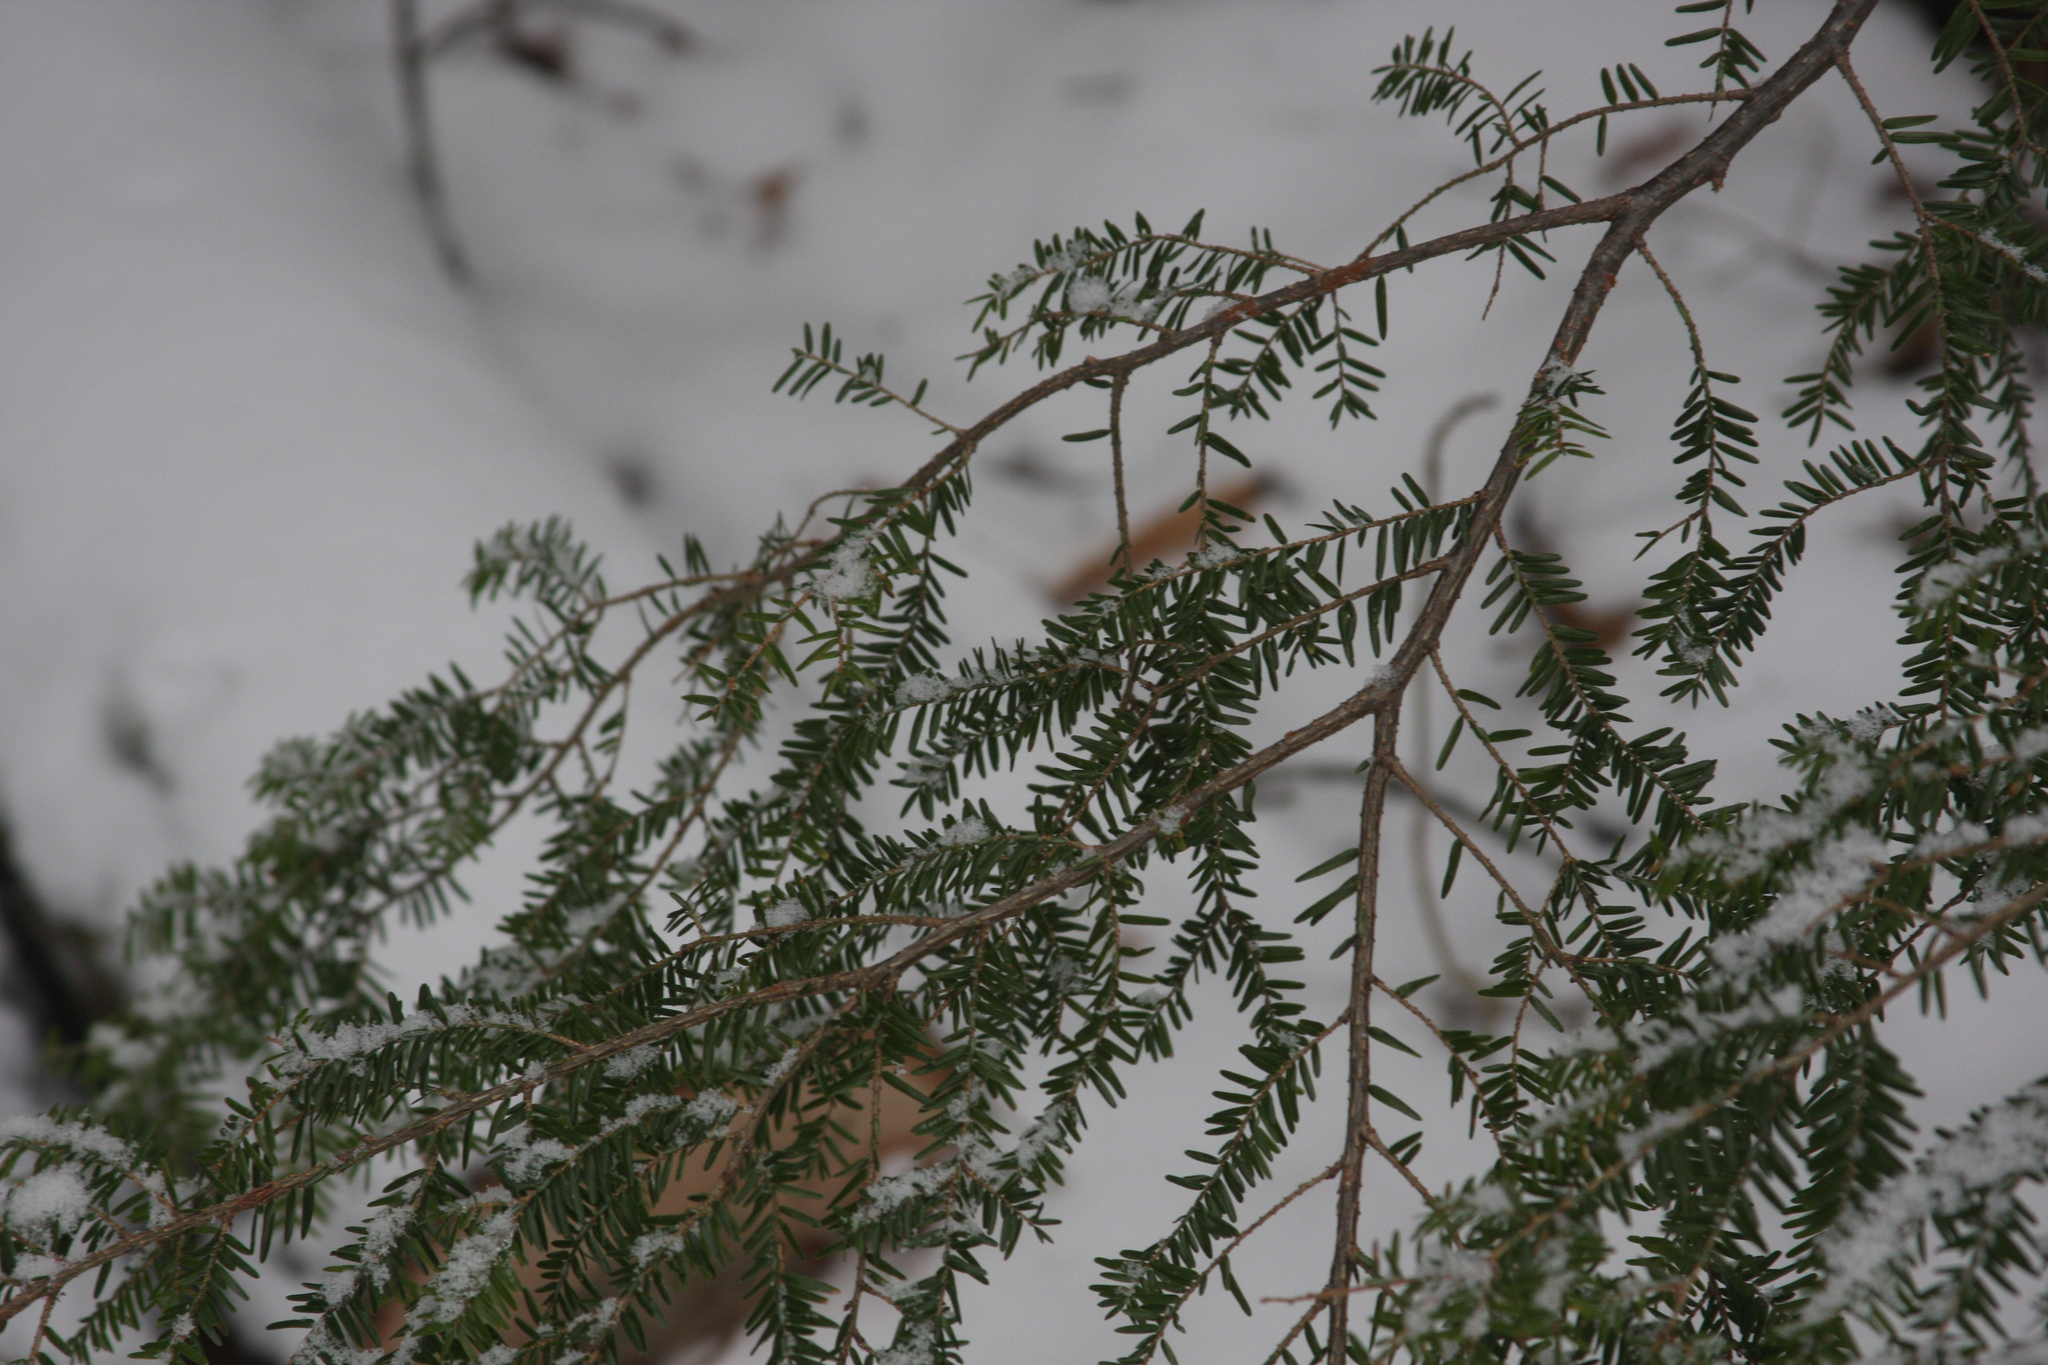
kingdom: Plantae
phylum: Tracheophyta
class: Pinopsida
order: Pinales
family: Pinaceae
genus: Tsuga
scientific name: Tsuga canadensis
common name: Eastern hemlock
